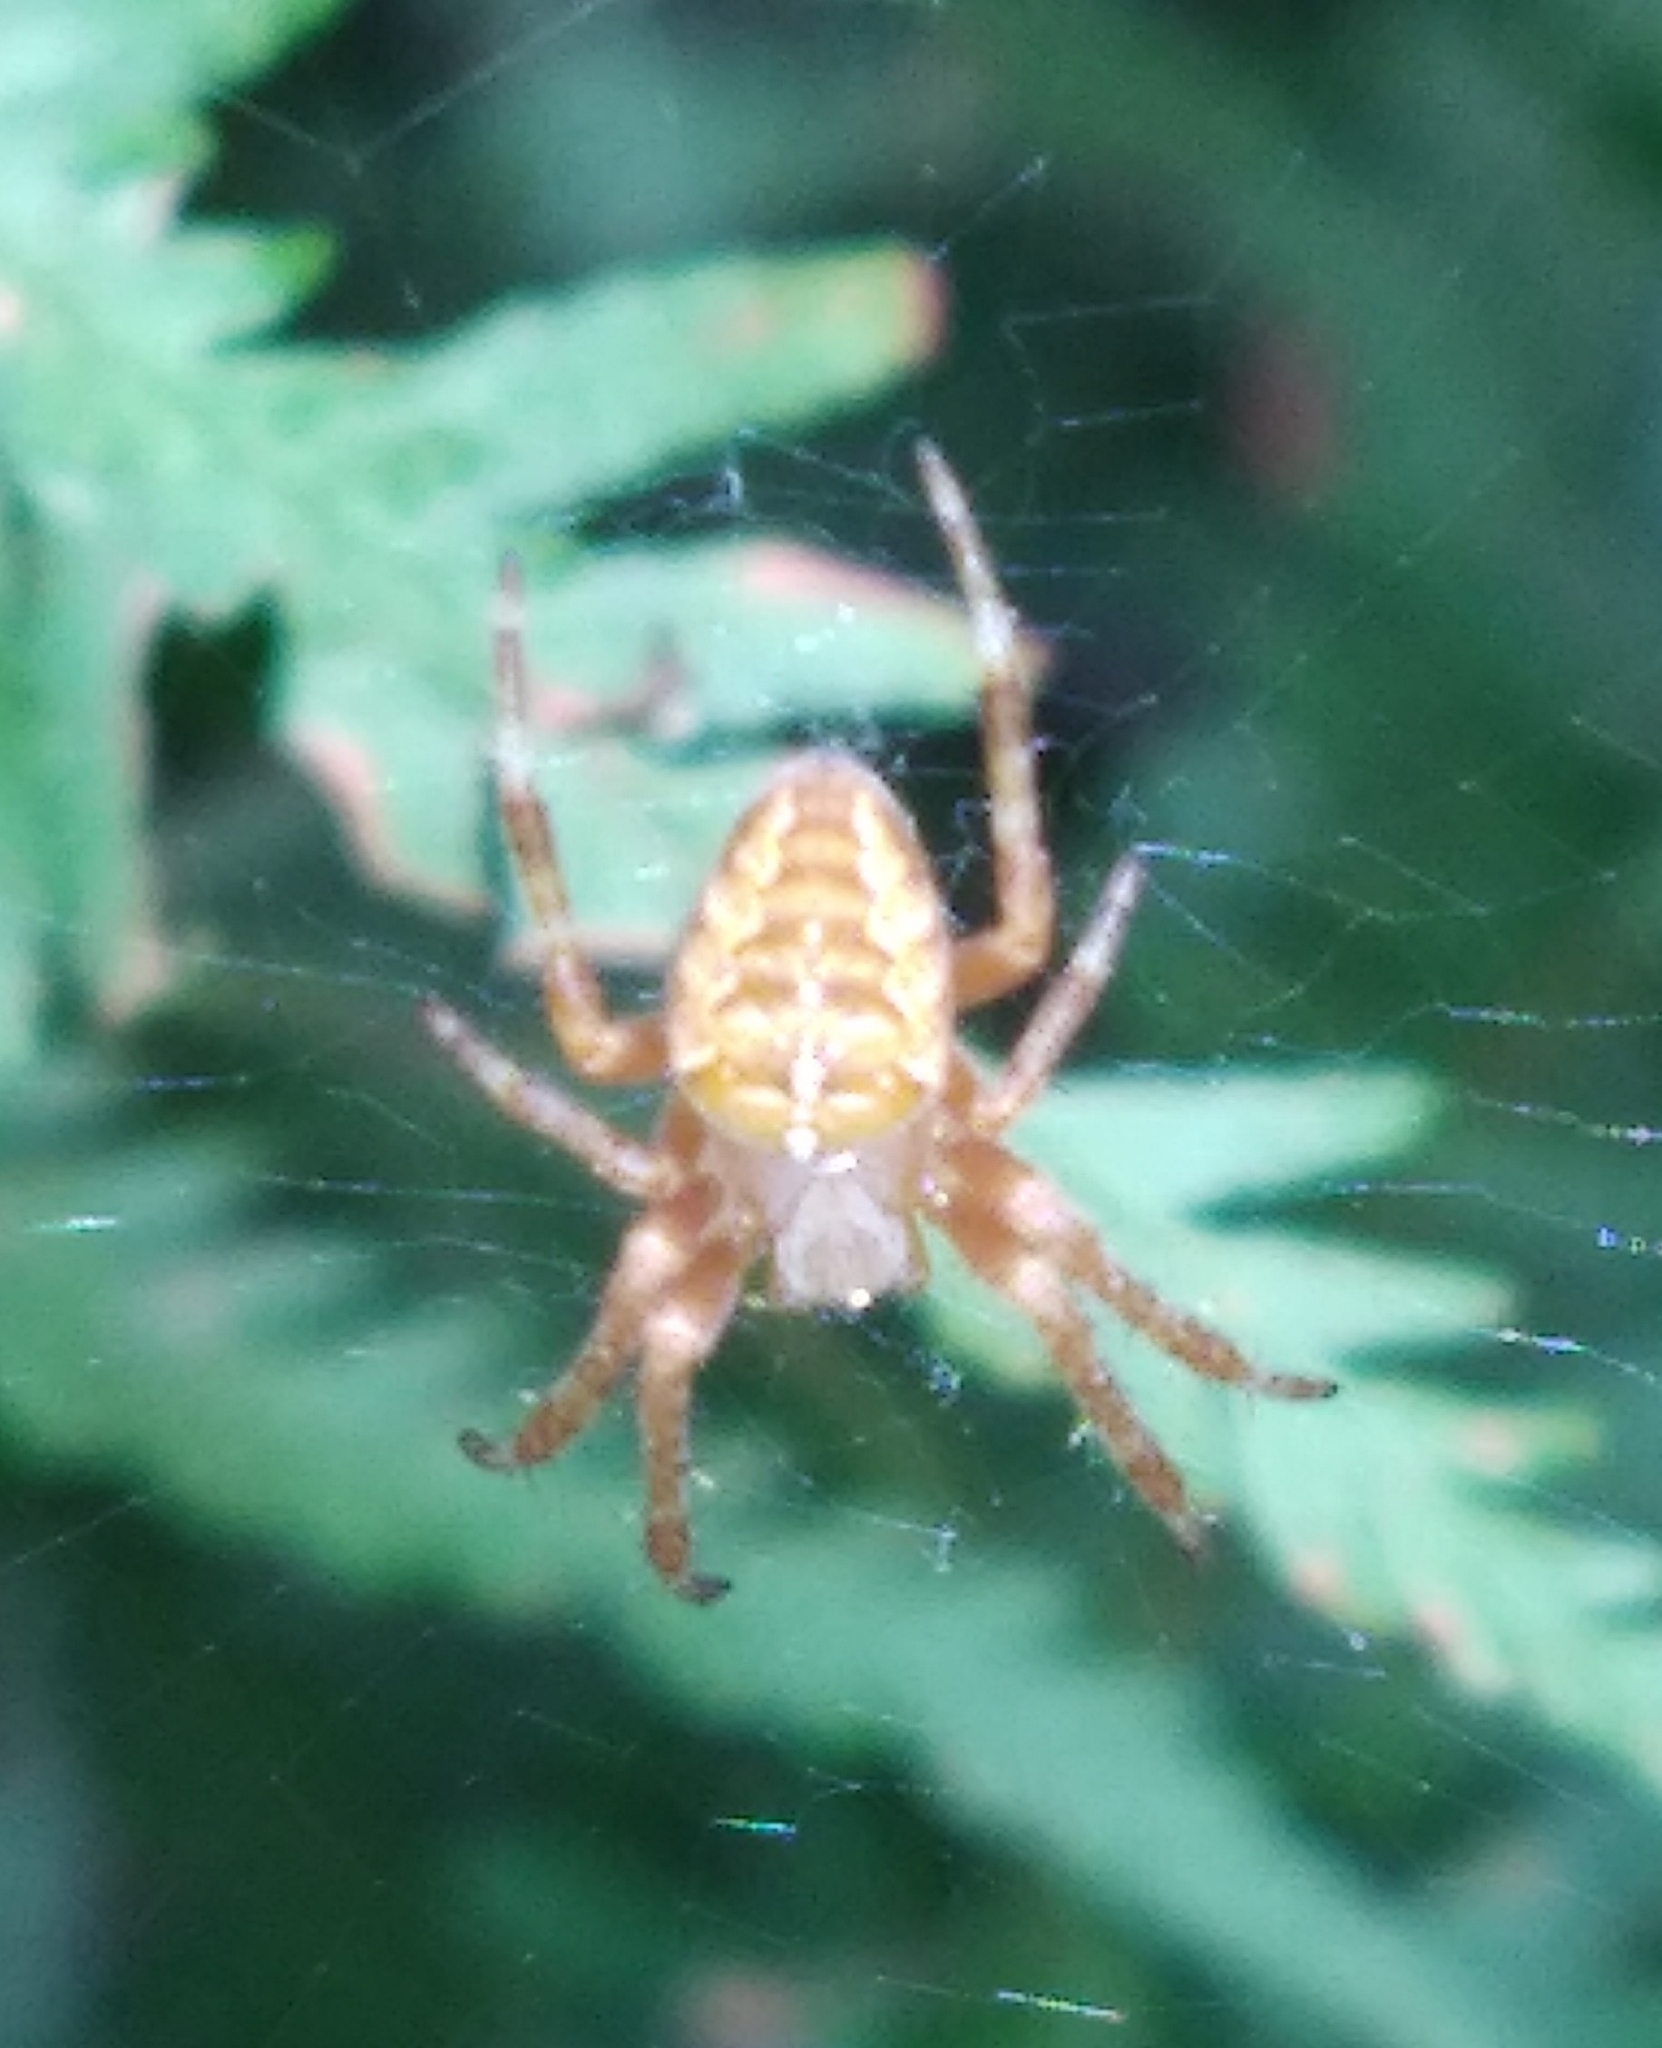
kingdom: Animalia
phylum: Arthropoda
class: Arachnida
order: Araneae
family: Araneidae
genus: Araneus
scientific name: Araneus diadematus
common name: Cross orbweaver
